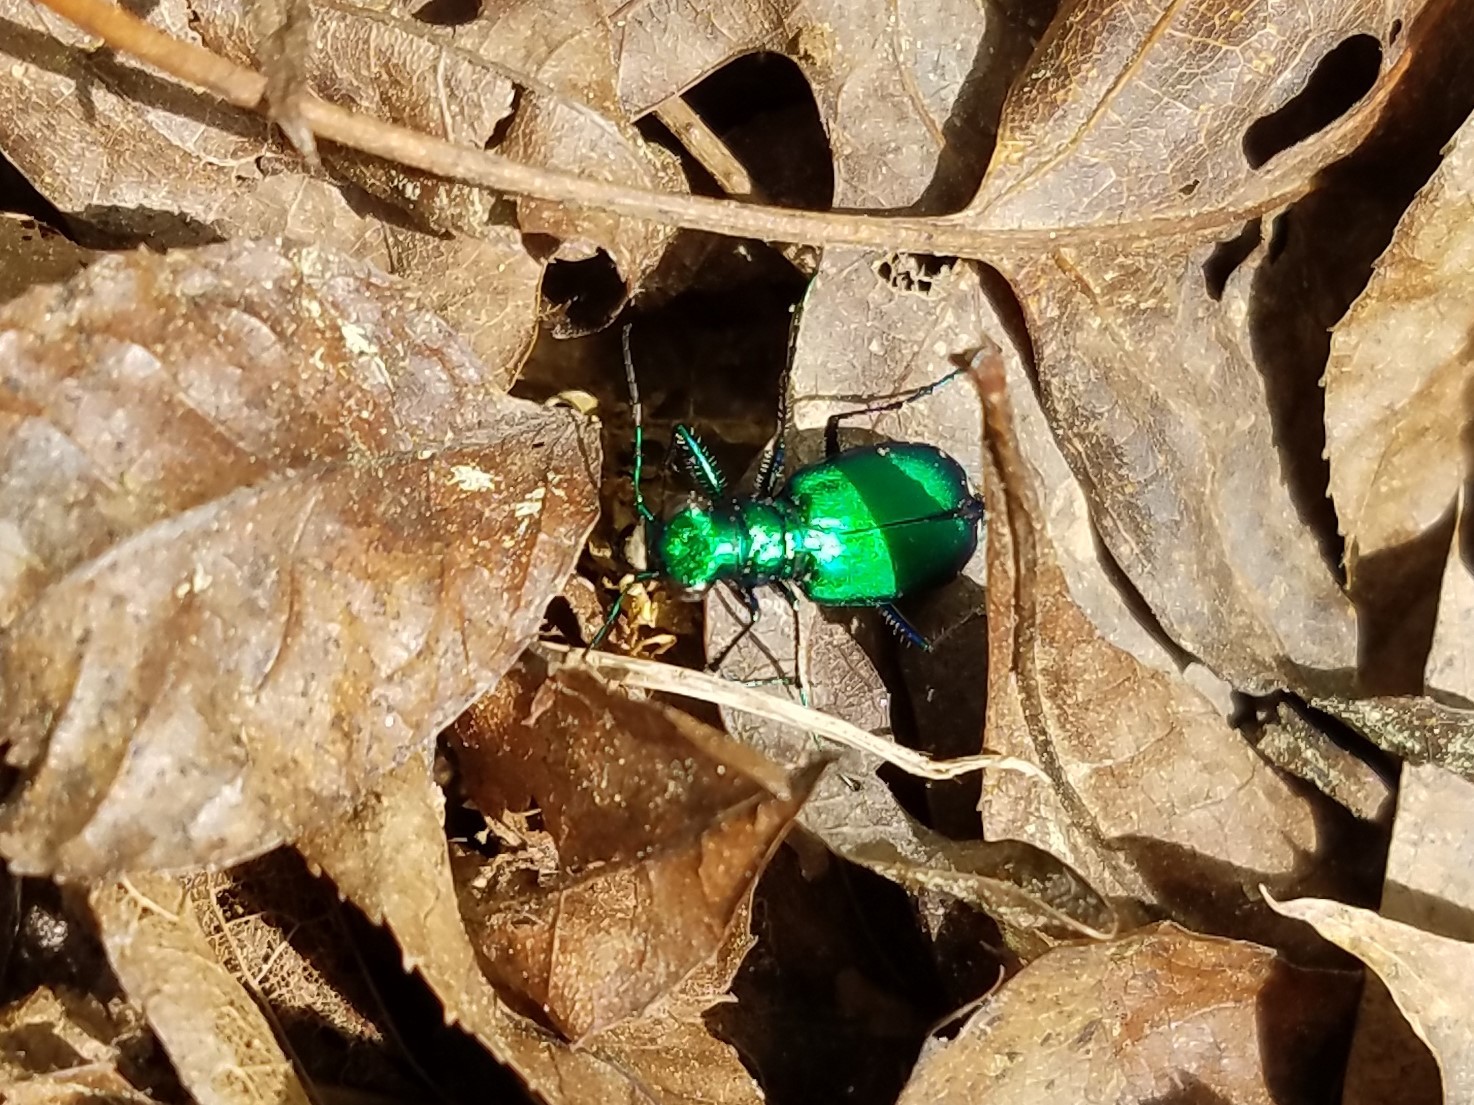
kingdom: Animalia
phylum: Arthropoda
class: Insecta
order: Coleoptera
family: Carabidae
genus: Cicindela
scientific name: Cicindela sexguttata
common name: Six-spotted tiger beetle
